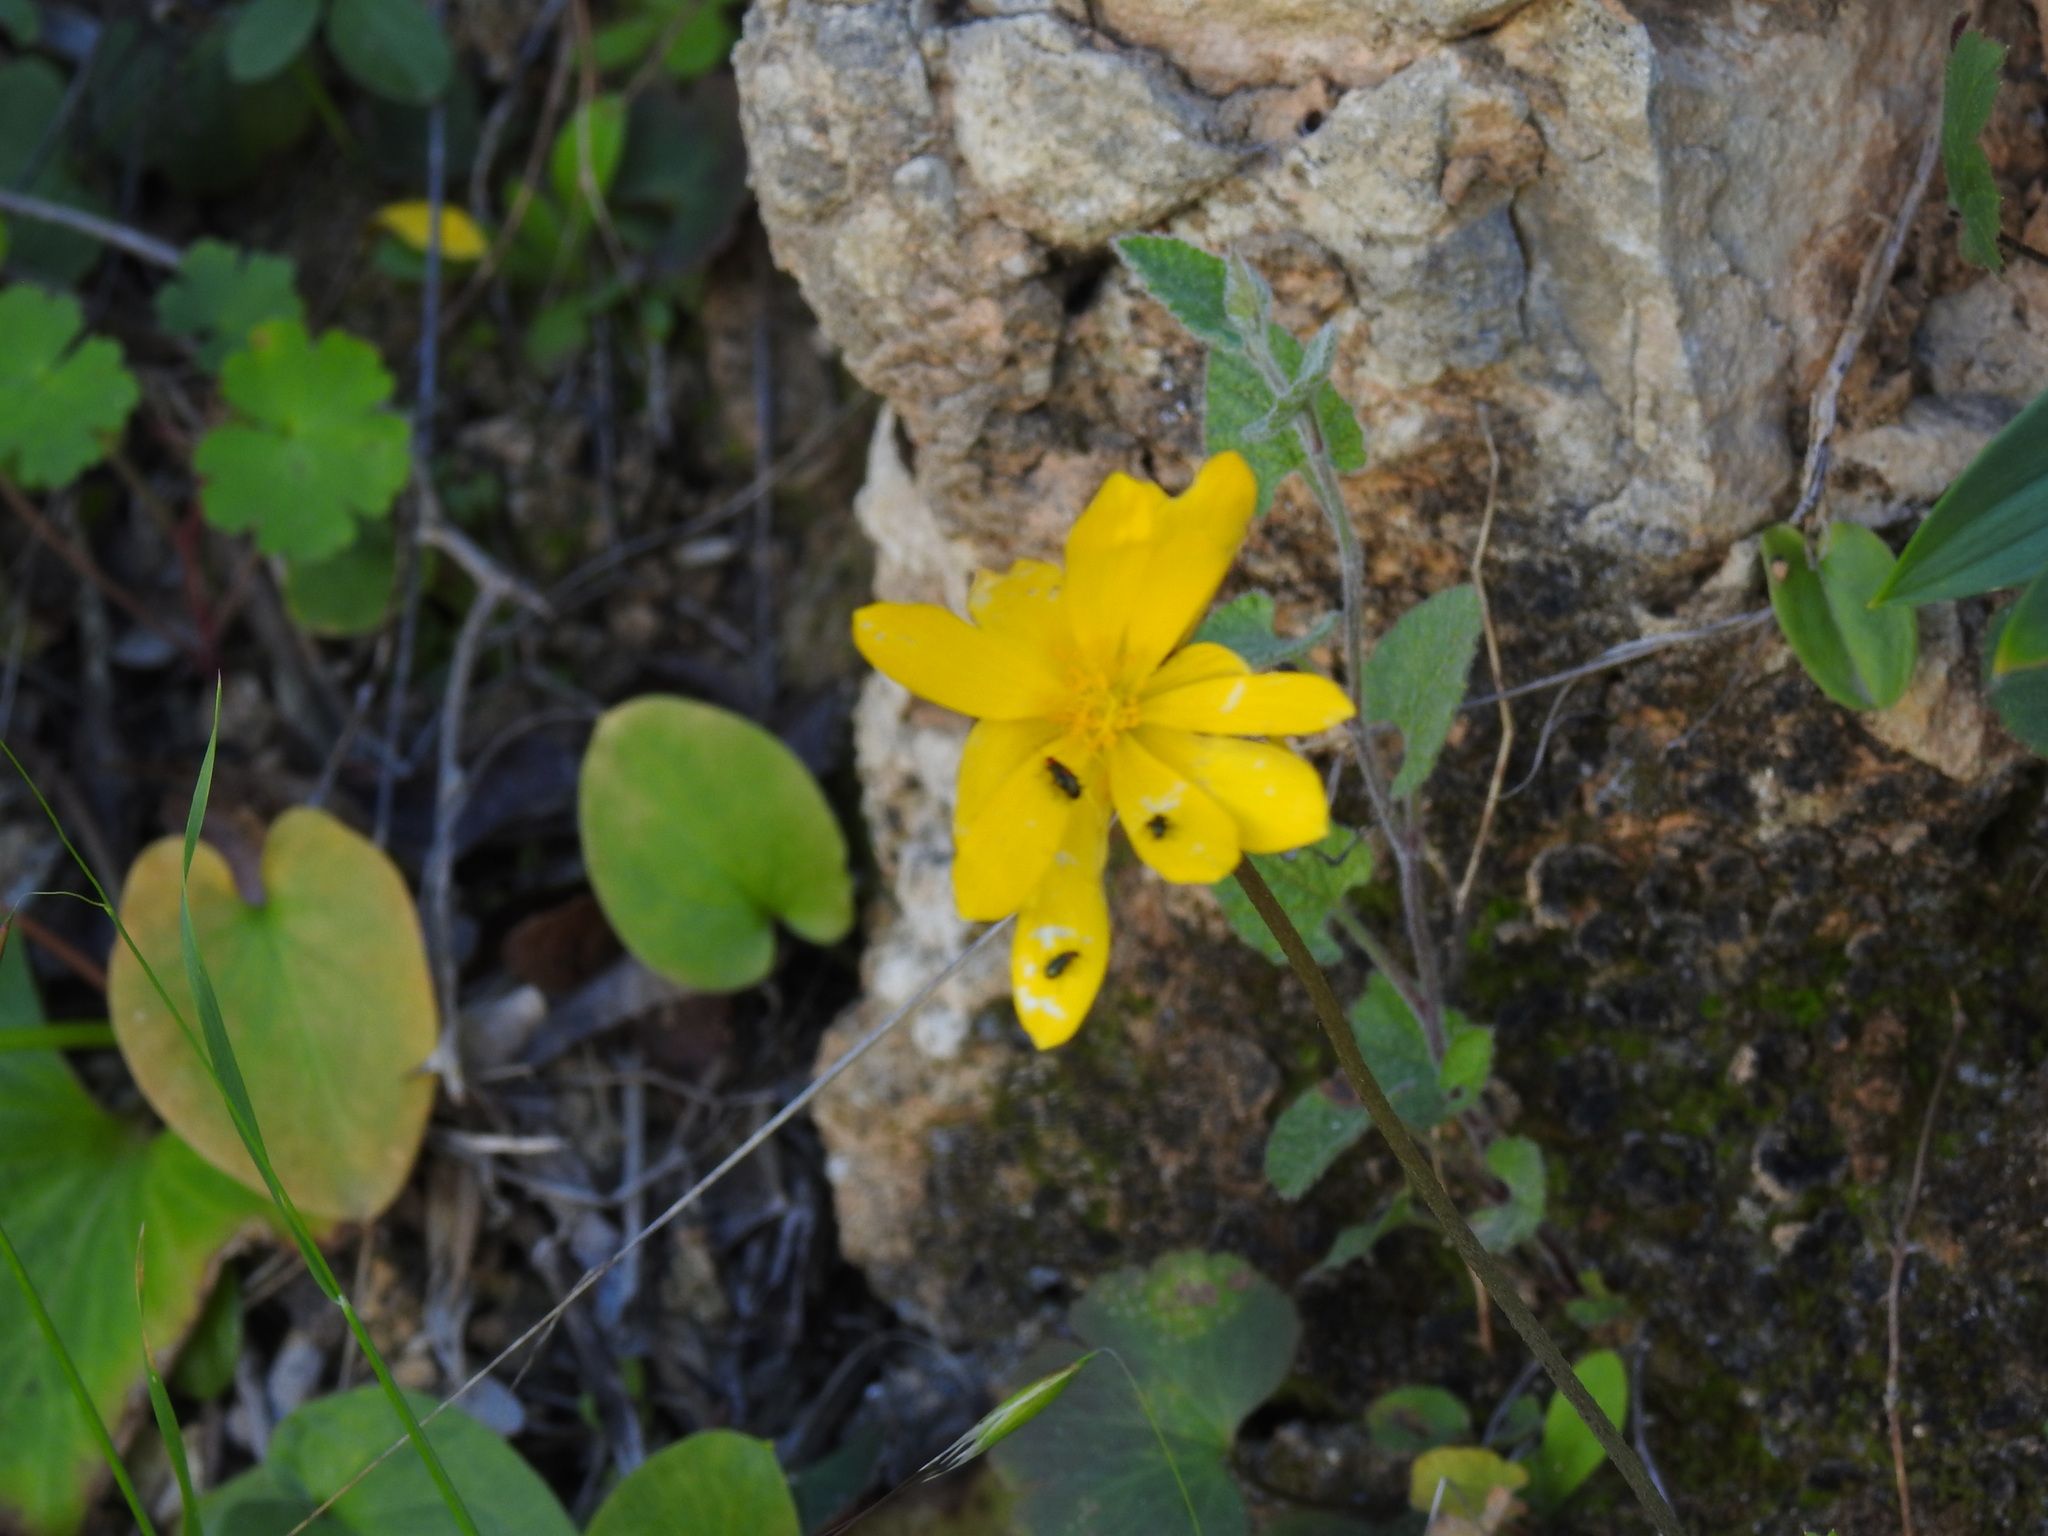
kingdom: Plantae
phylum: Tracheophyta
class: Magnoliopsida
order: Ranunculales
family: Ranunculaceae
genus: Anemone
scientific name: Anemone palmata
